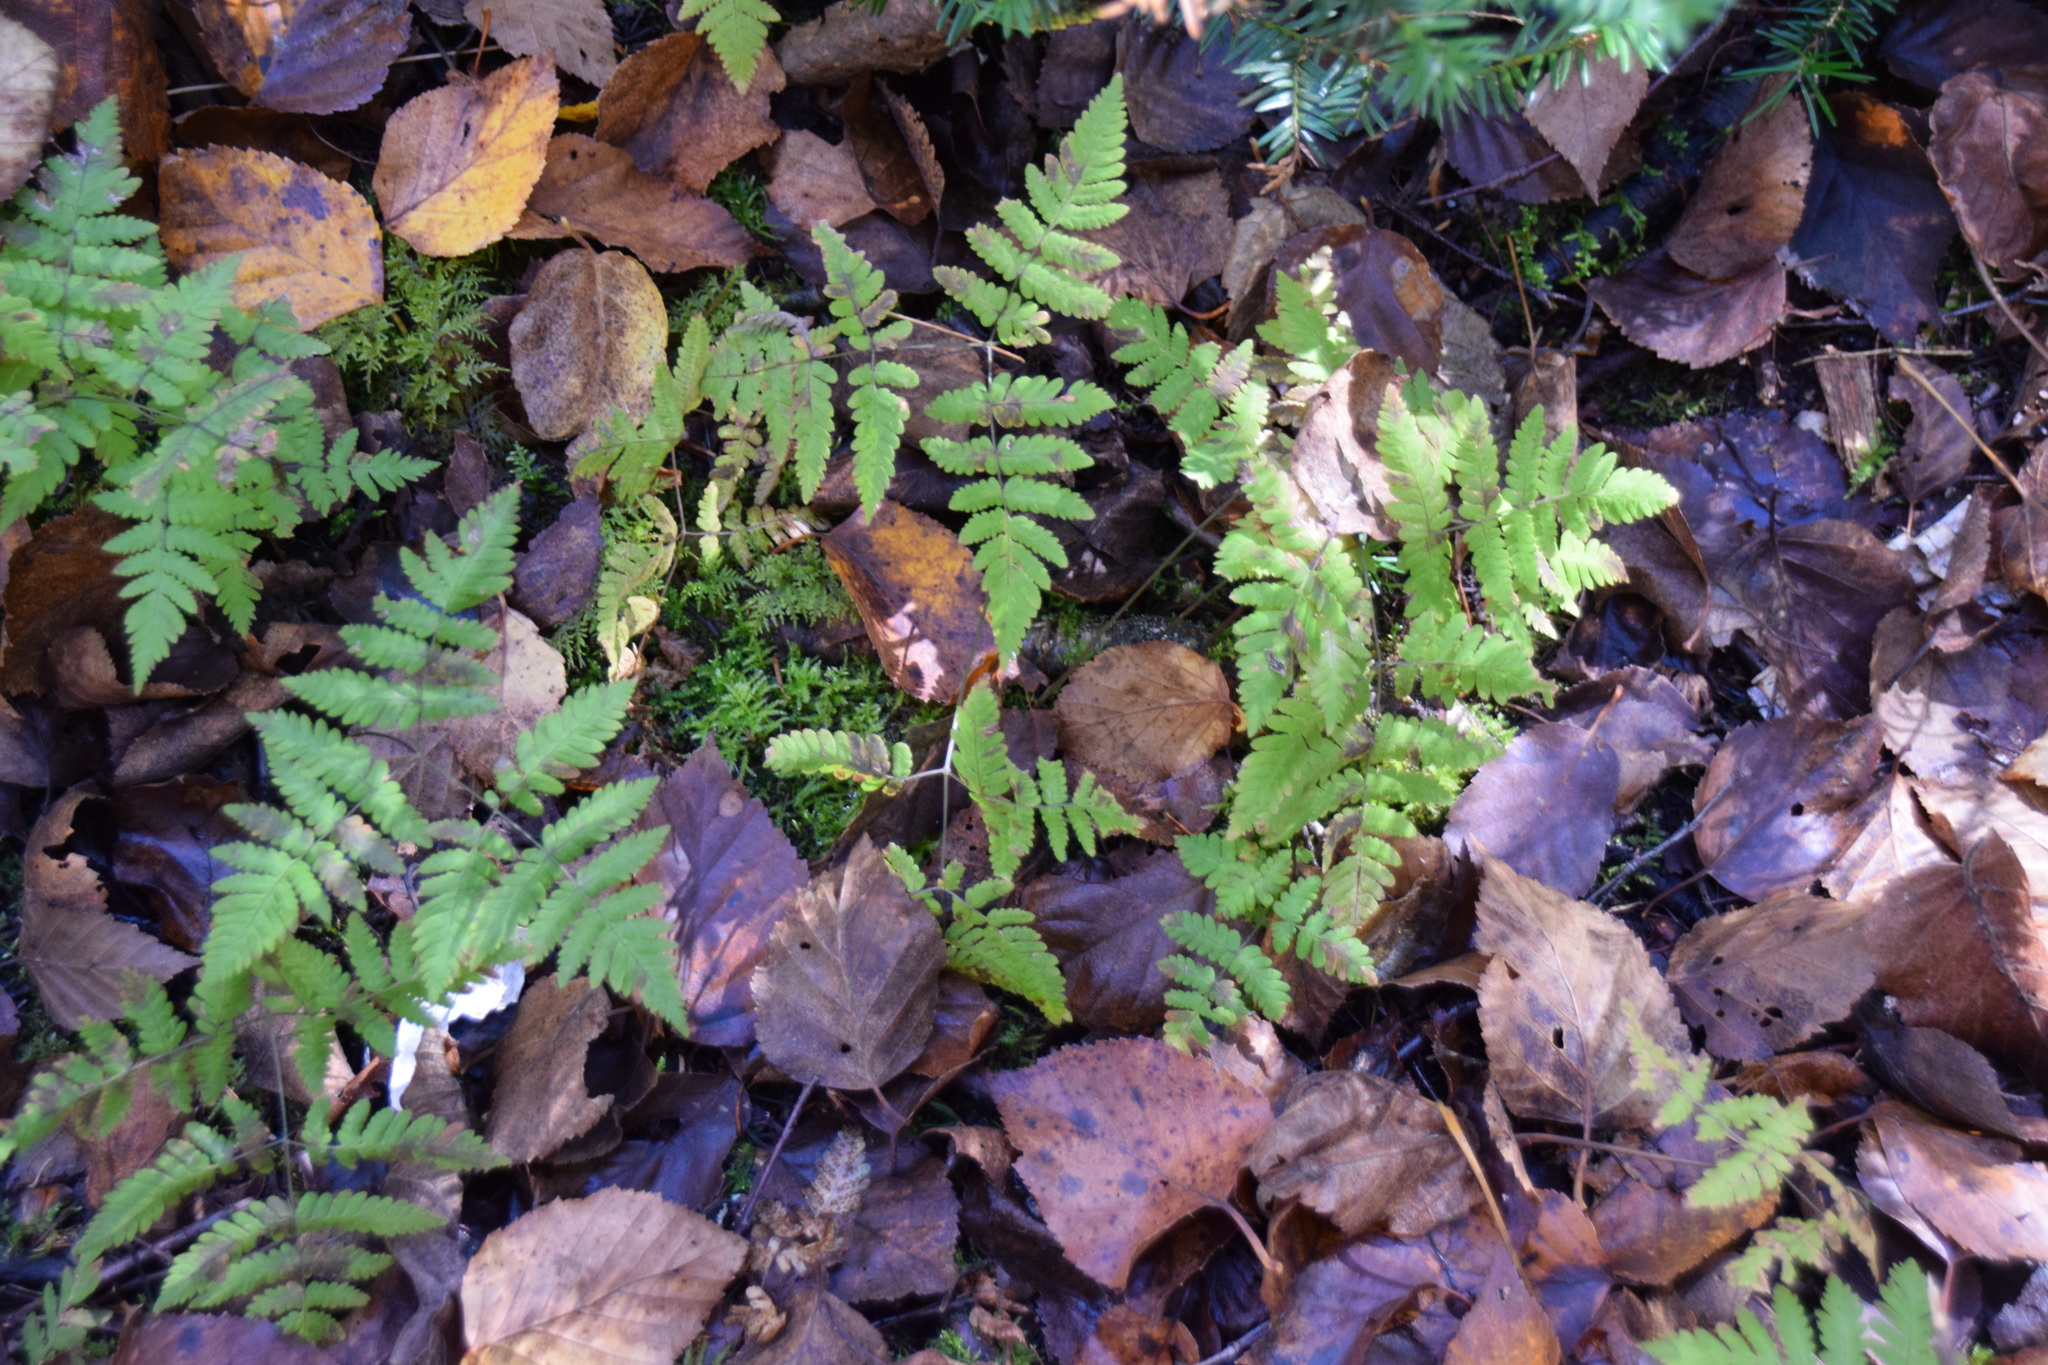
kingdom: Plantae
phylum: Tracheophyta
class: Polypodiopsida
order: Polypodiales
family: Cystopteridaceae
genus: Gymnocarpium
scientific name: Gymnocarpium dryopteris
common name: Oak fern
